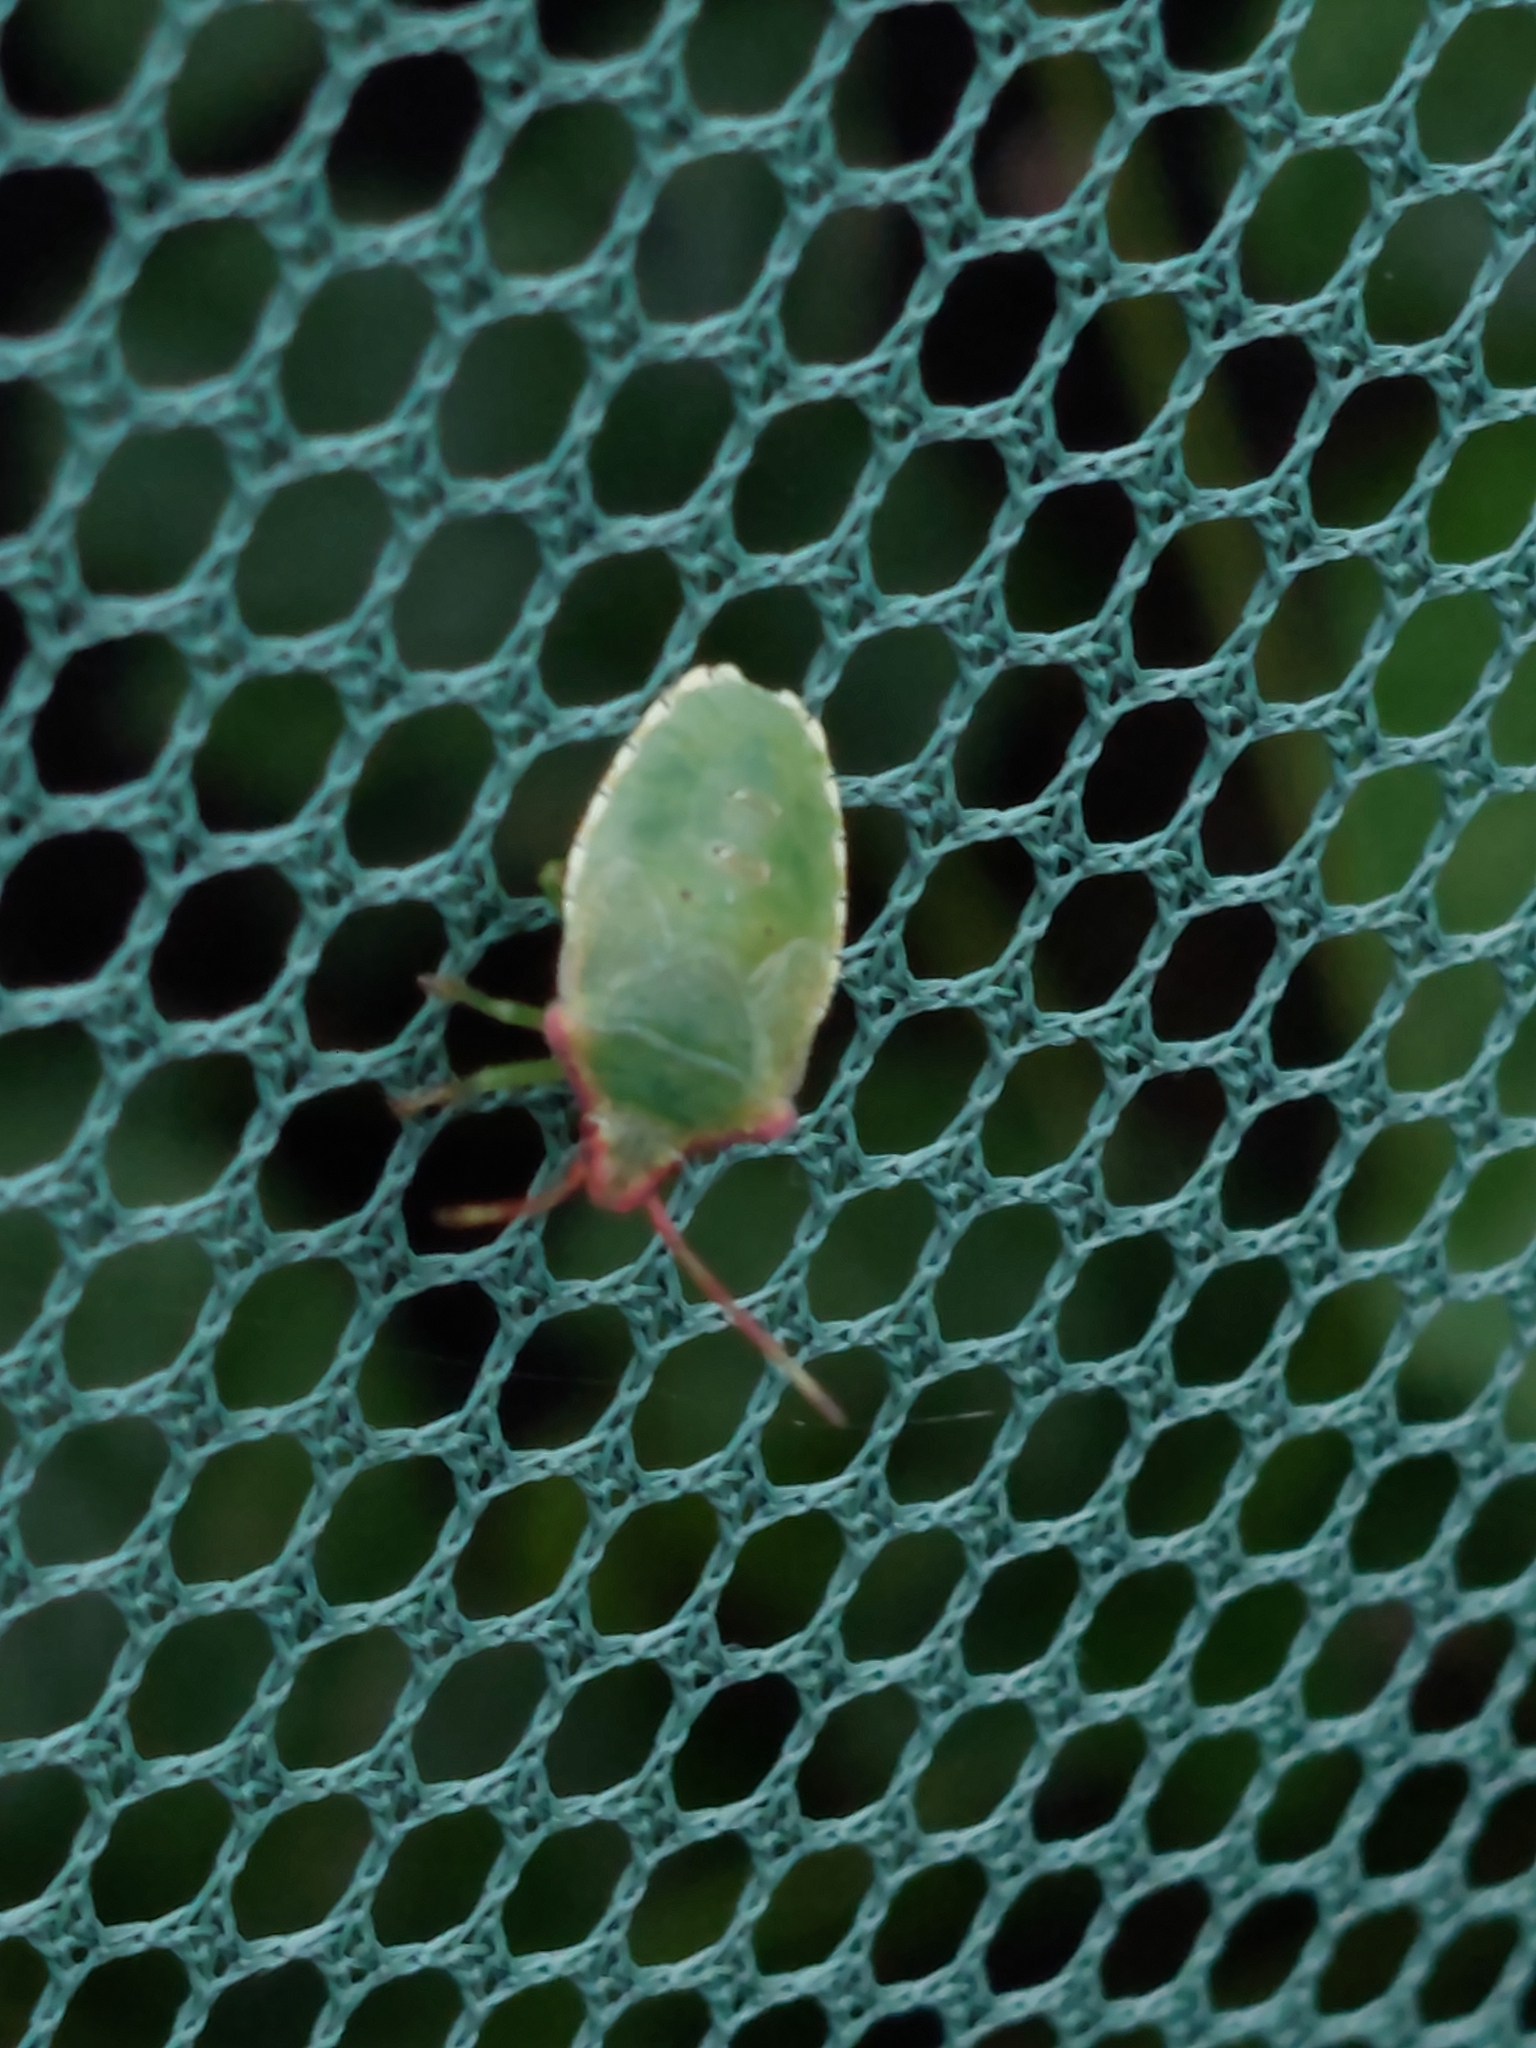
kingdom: Animalia
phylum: Arthropoda
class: Insecta
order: Hemiptera
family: Acanthosomatidae
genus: Acanthosoma
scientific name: Acanthosoma haemorrhoidale
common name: Hawthorn shieldbug
